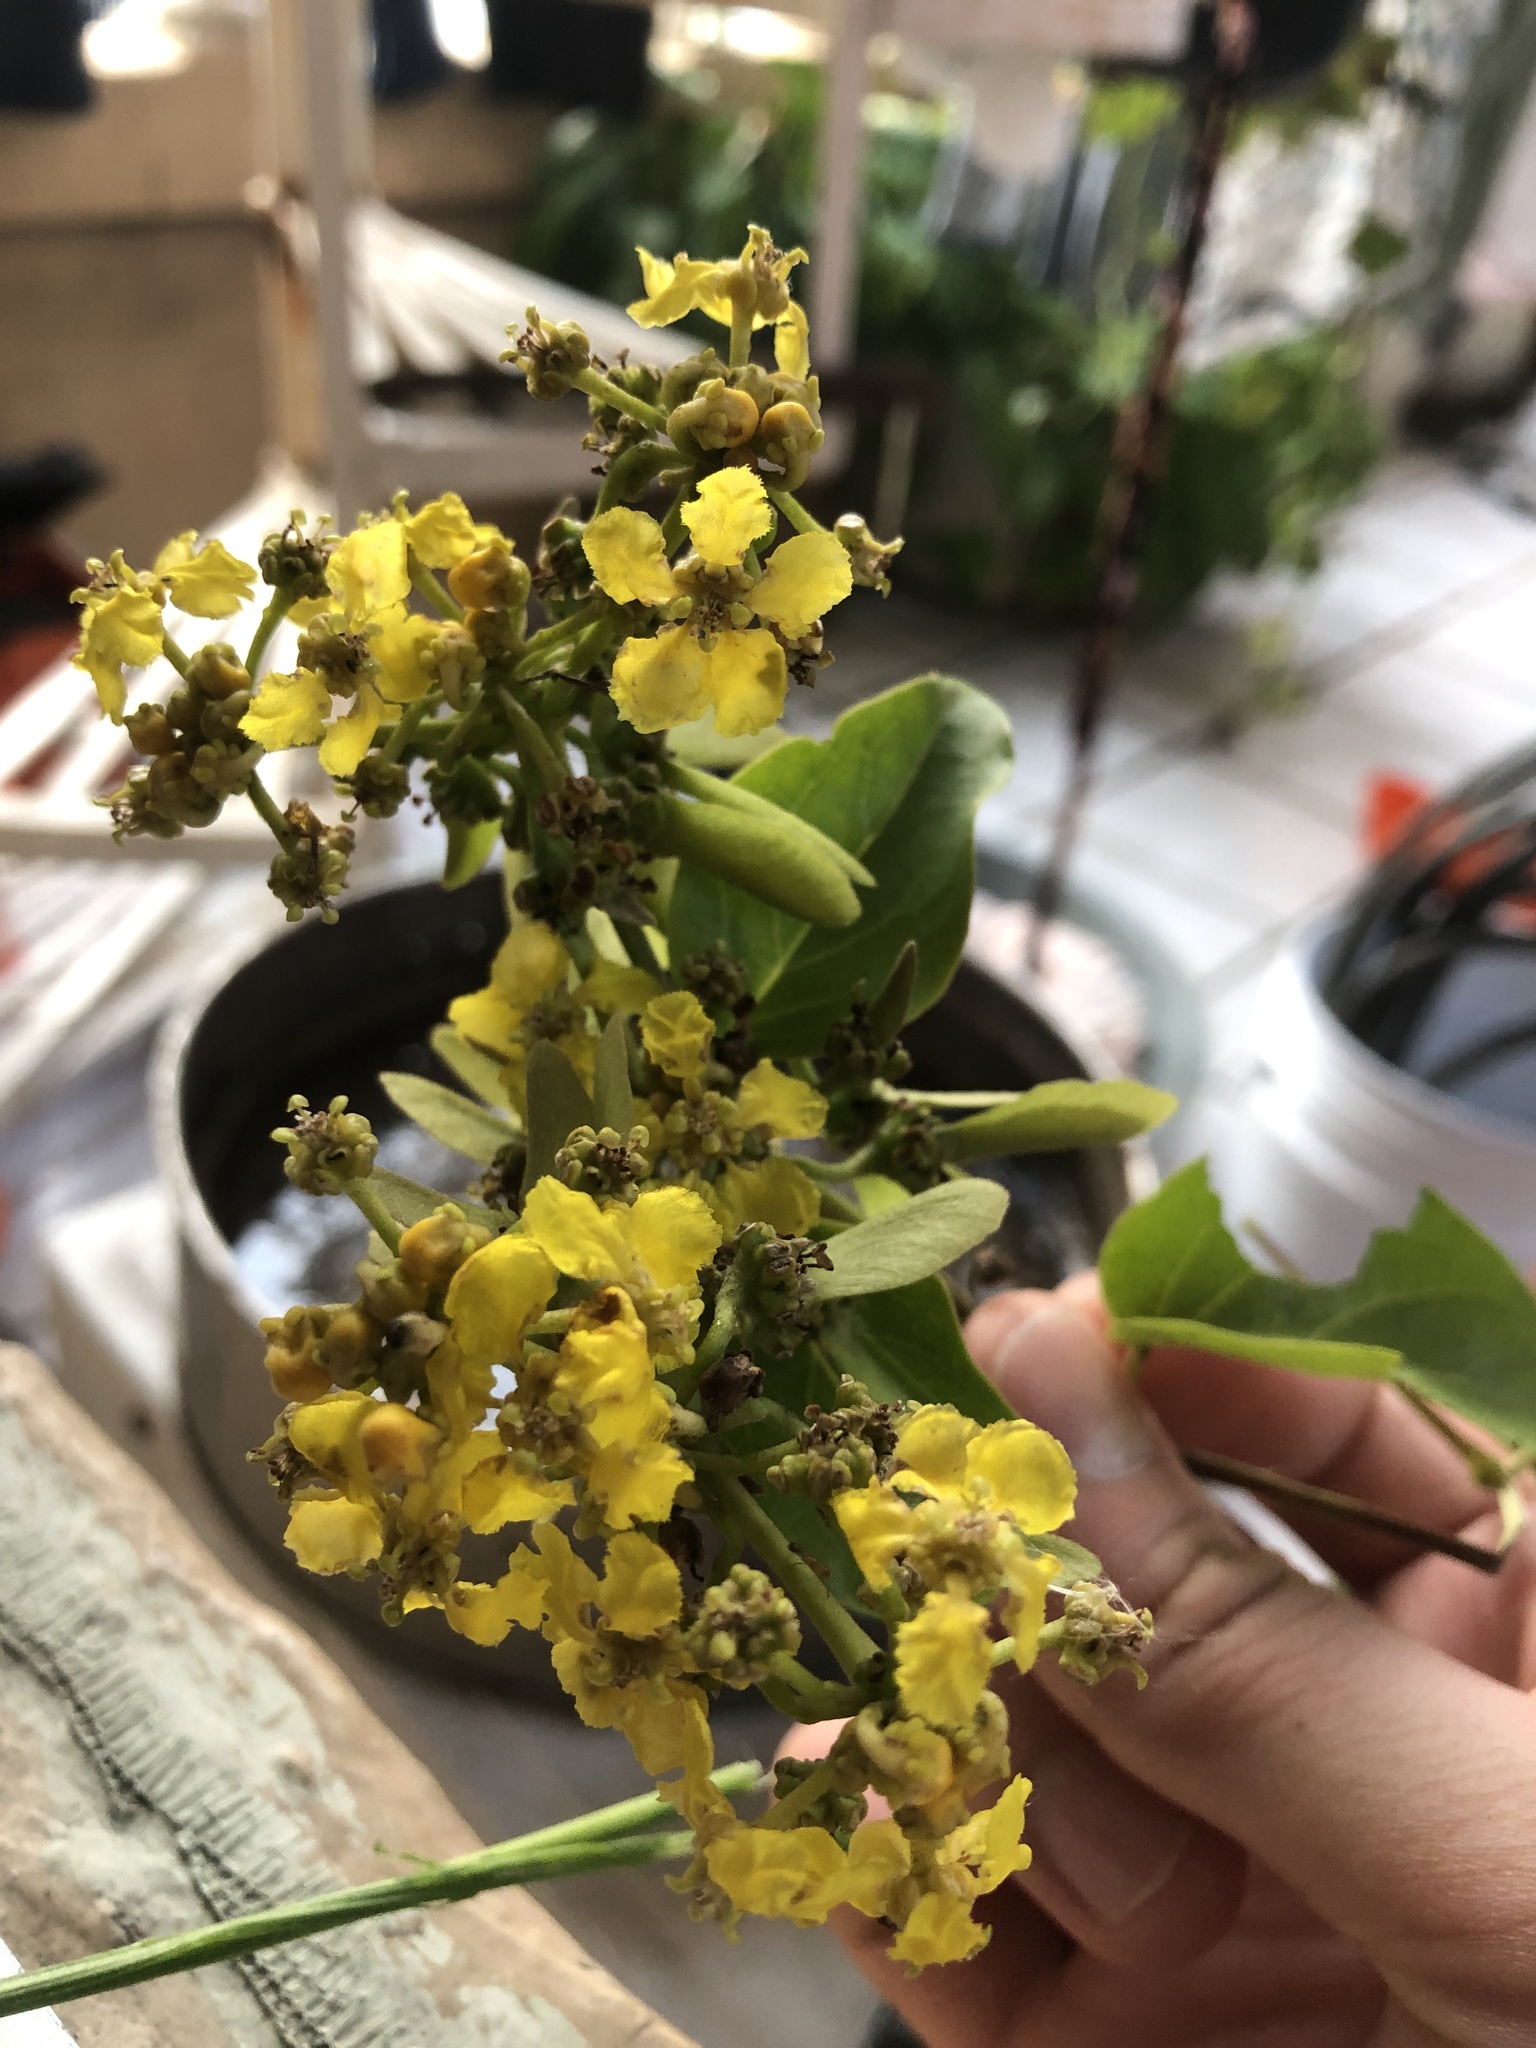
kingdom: Plantae
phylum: Tracheophyta
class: Magnoliopsida
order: Malpighiales
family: Malpighiaceae
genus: Callaeum
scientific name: Callaeum macropterum
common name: Mexican butterfly-vine
